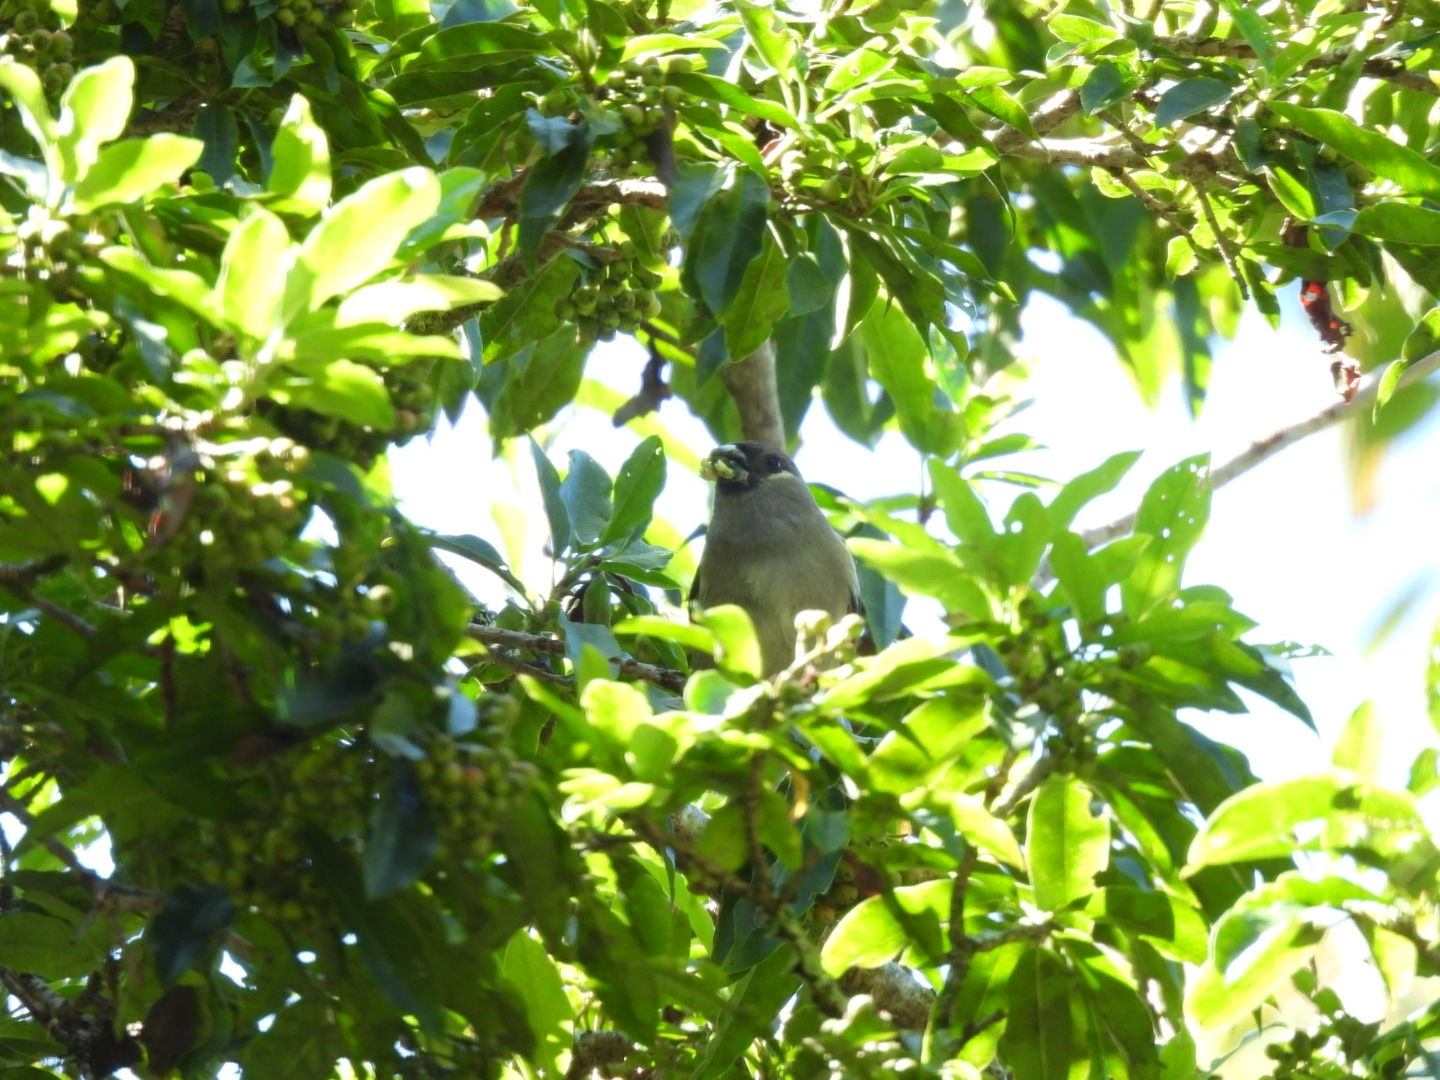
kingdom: Animalia
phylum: Chordata
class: Aves
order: Passeriformes
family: Fringillidae
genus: Pyrrhula
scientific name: Pyrrhula nipalensis
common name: Brown bullfinch
